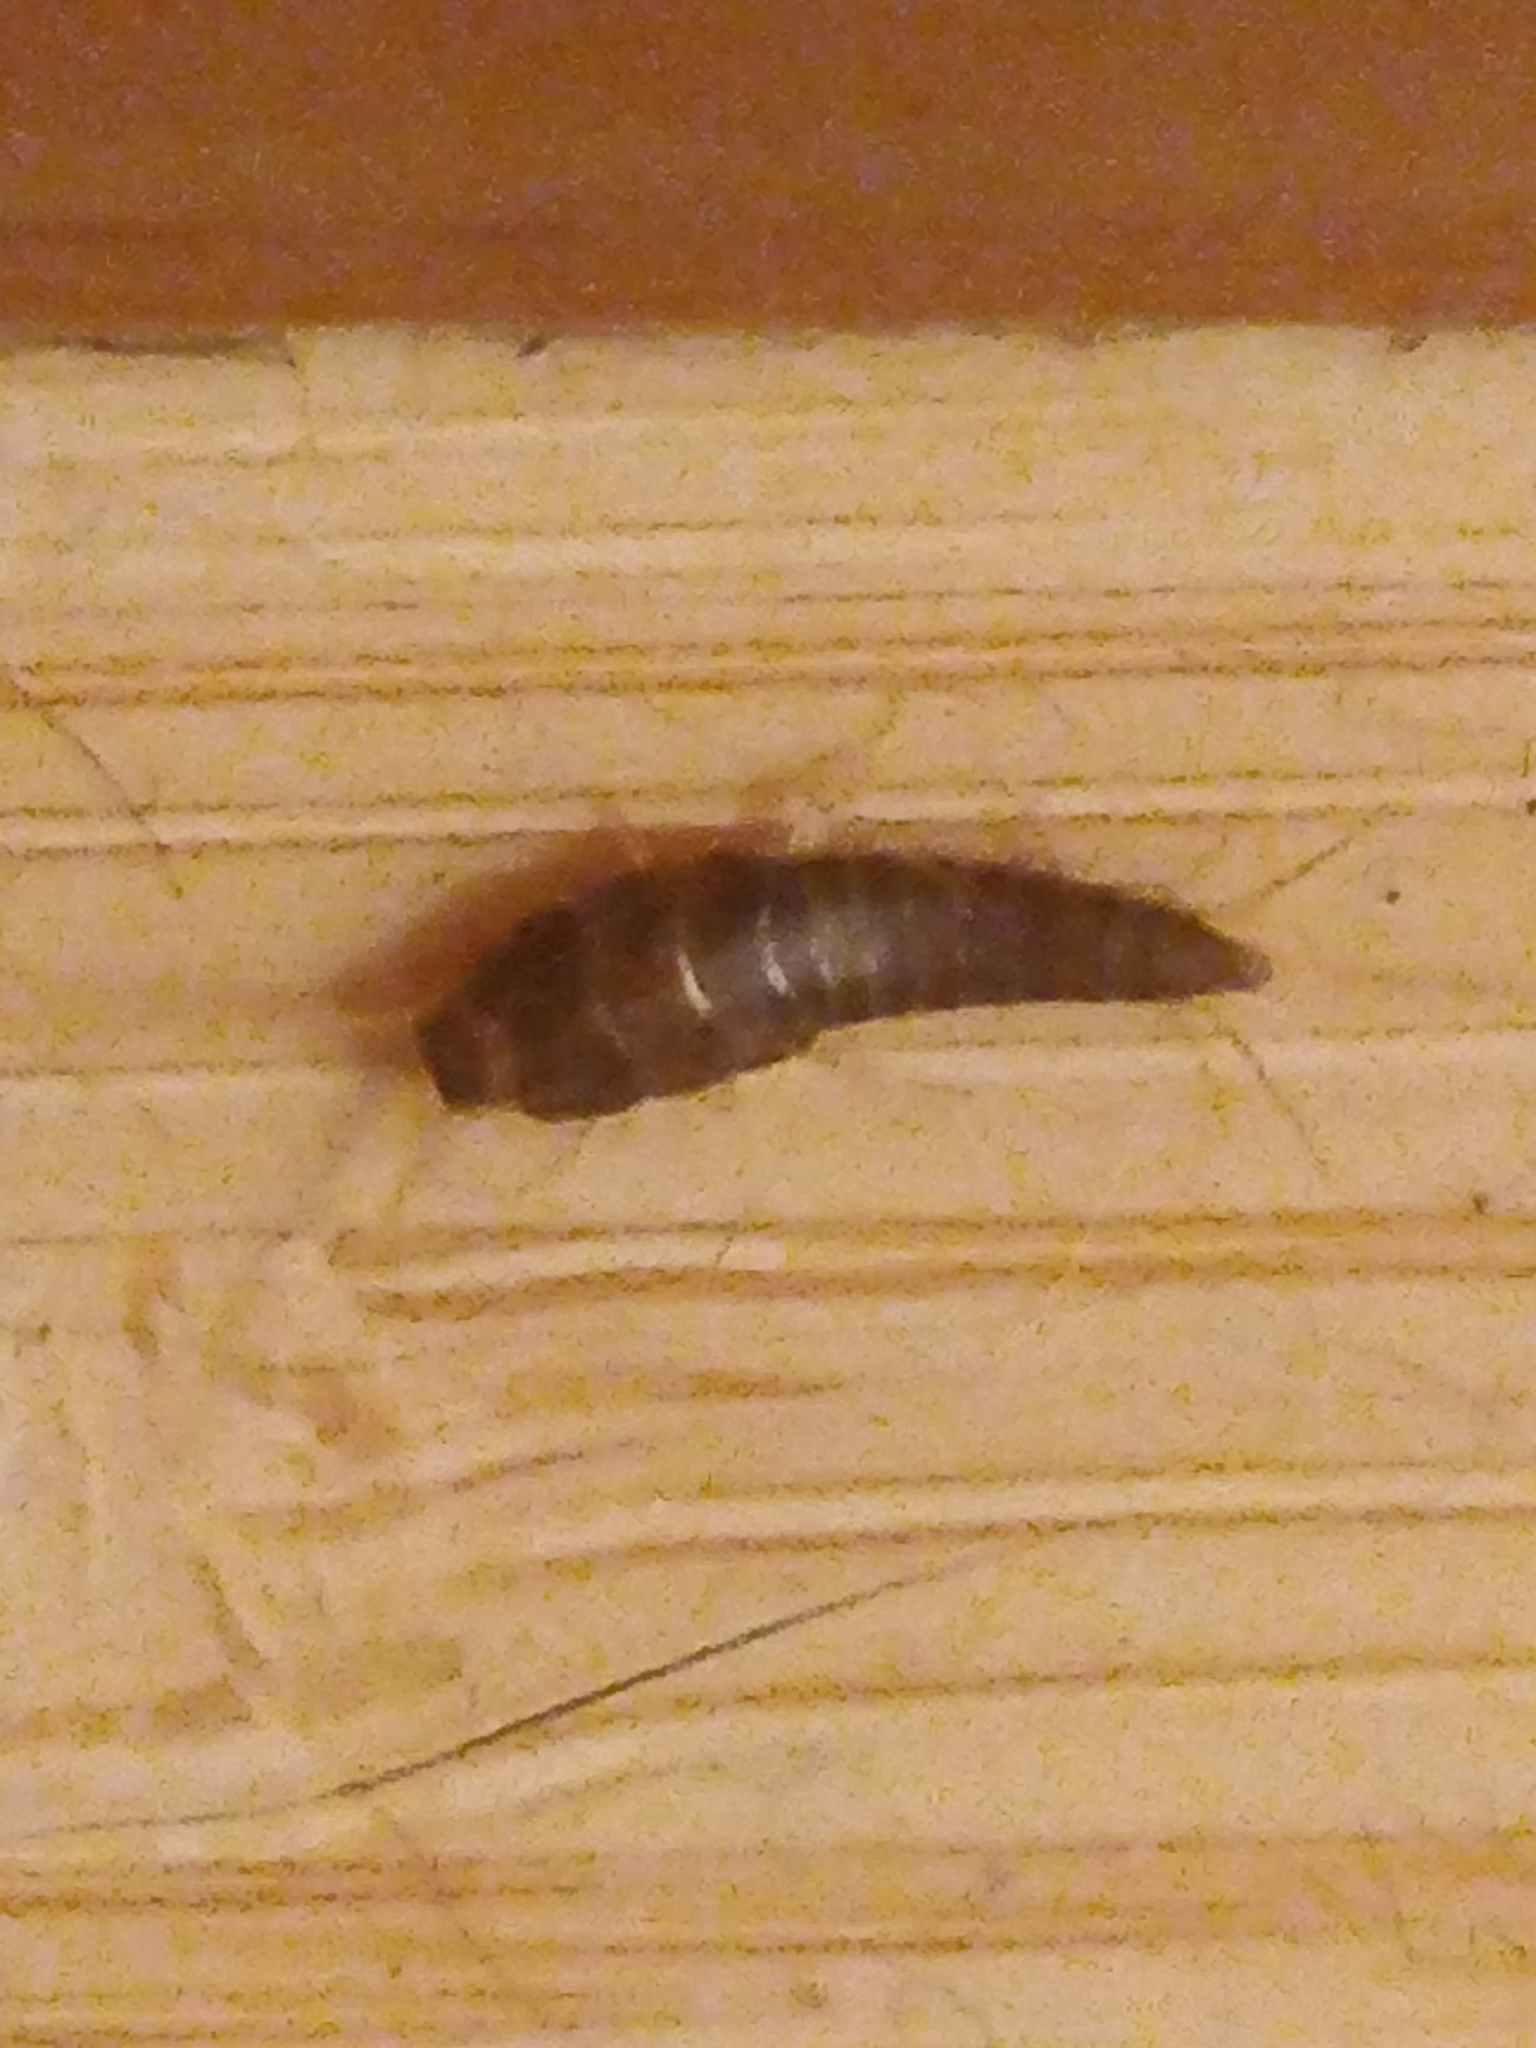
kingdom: Animalia
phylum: Arthropoda
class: Insecta
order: Zygentoma
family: Lepismatidae
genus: Lepisma
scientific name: Lepisma saccharinum
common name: Silverfish
